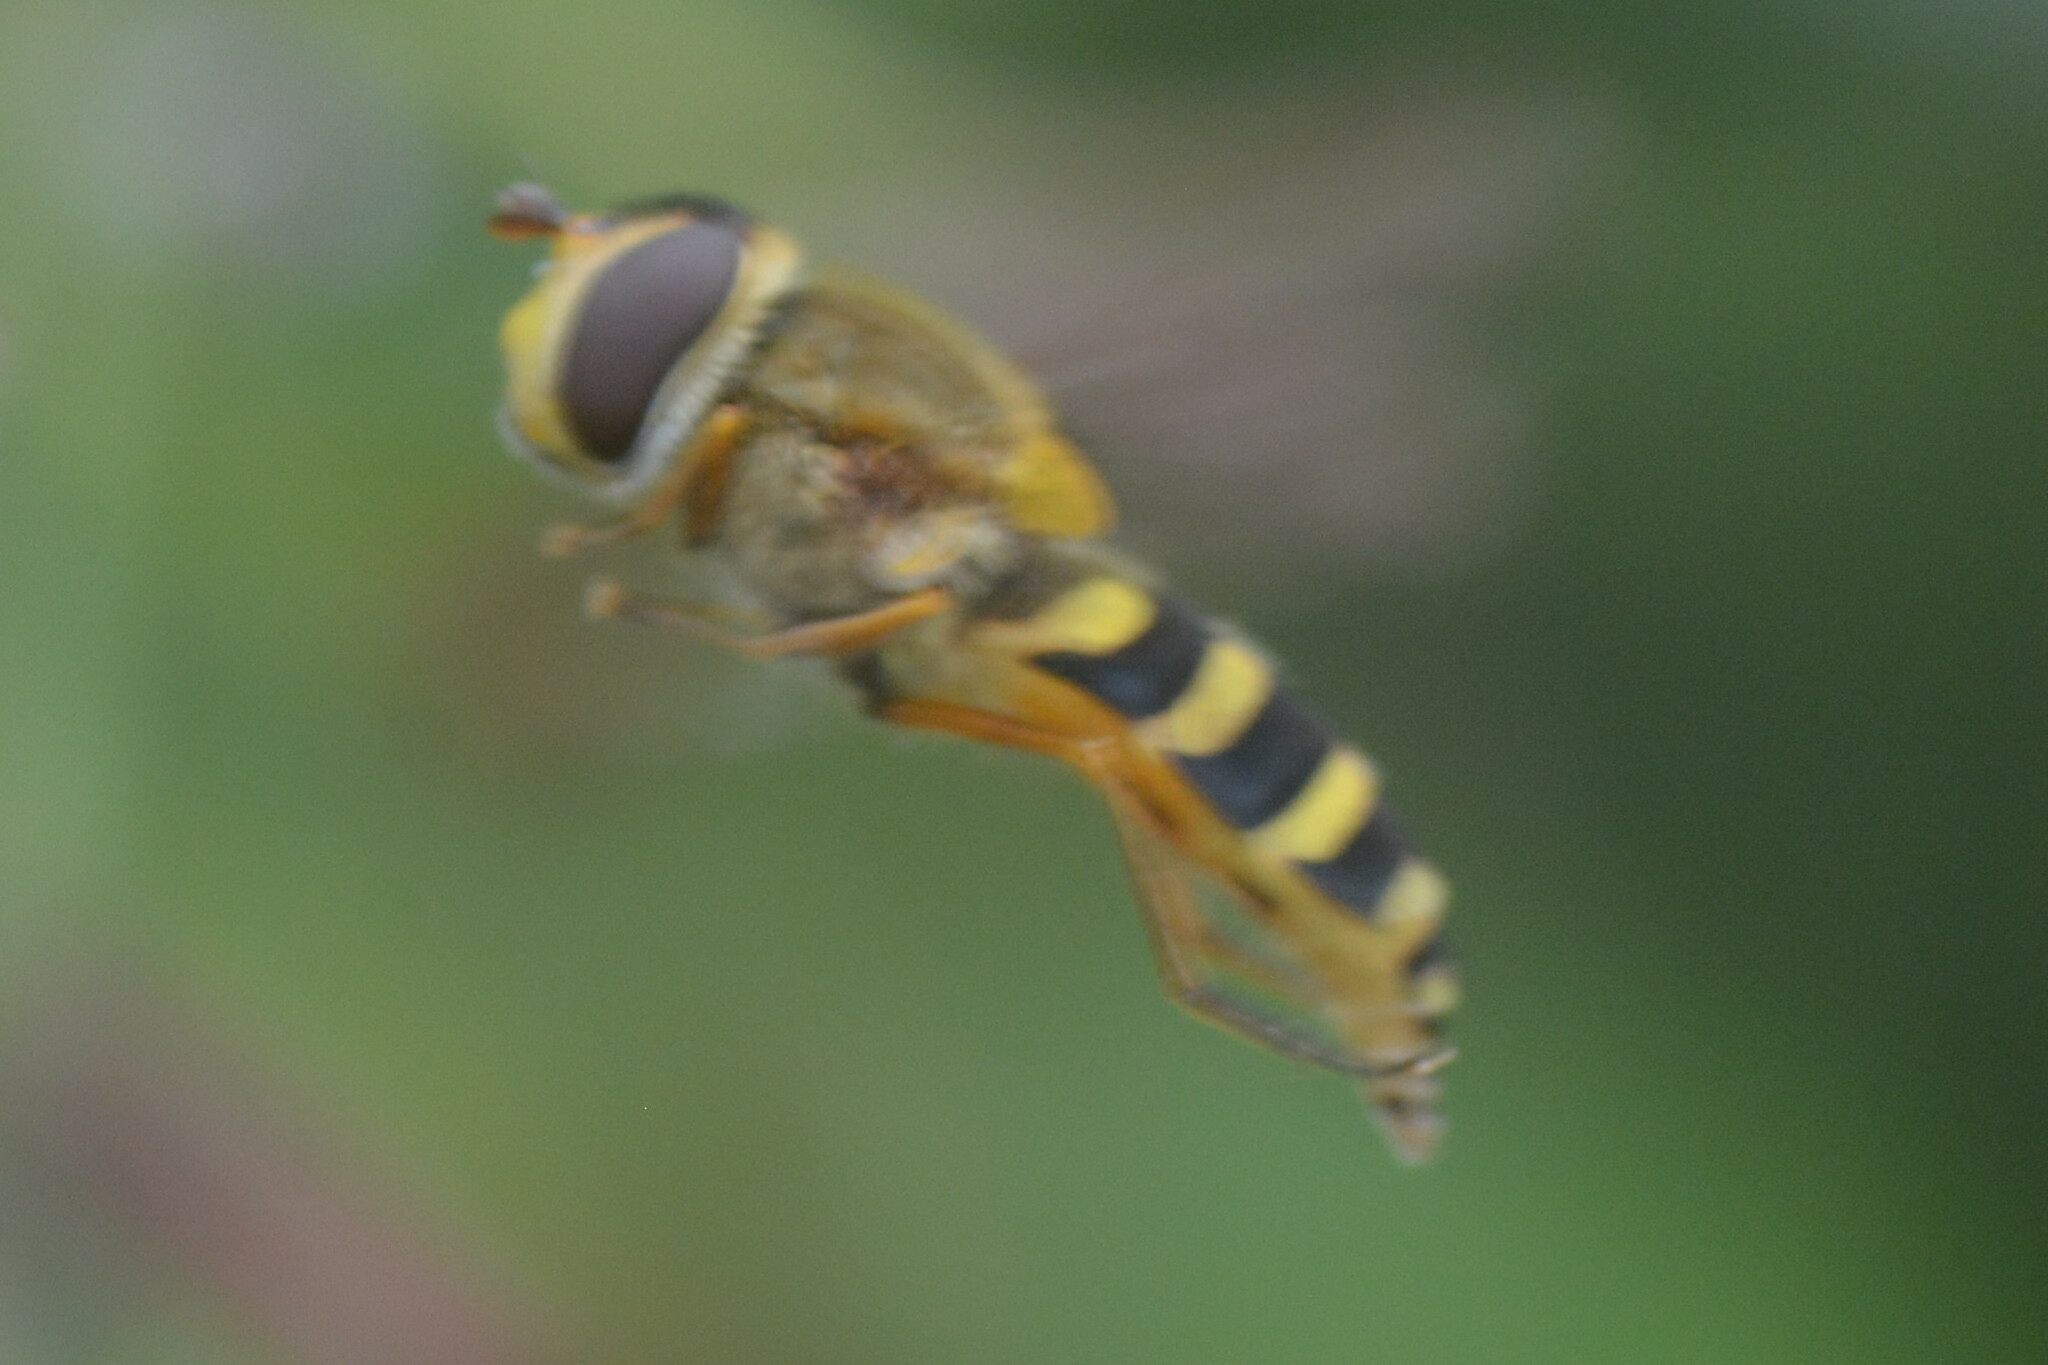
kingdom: Animalia
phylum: Arthropoda
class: Insecta
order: Diptera
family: Syrphidae
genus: Syrphus
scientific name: Syrphus ribesii
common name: Common flower fly
